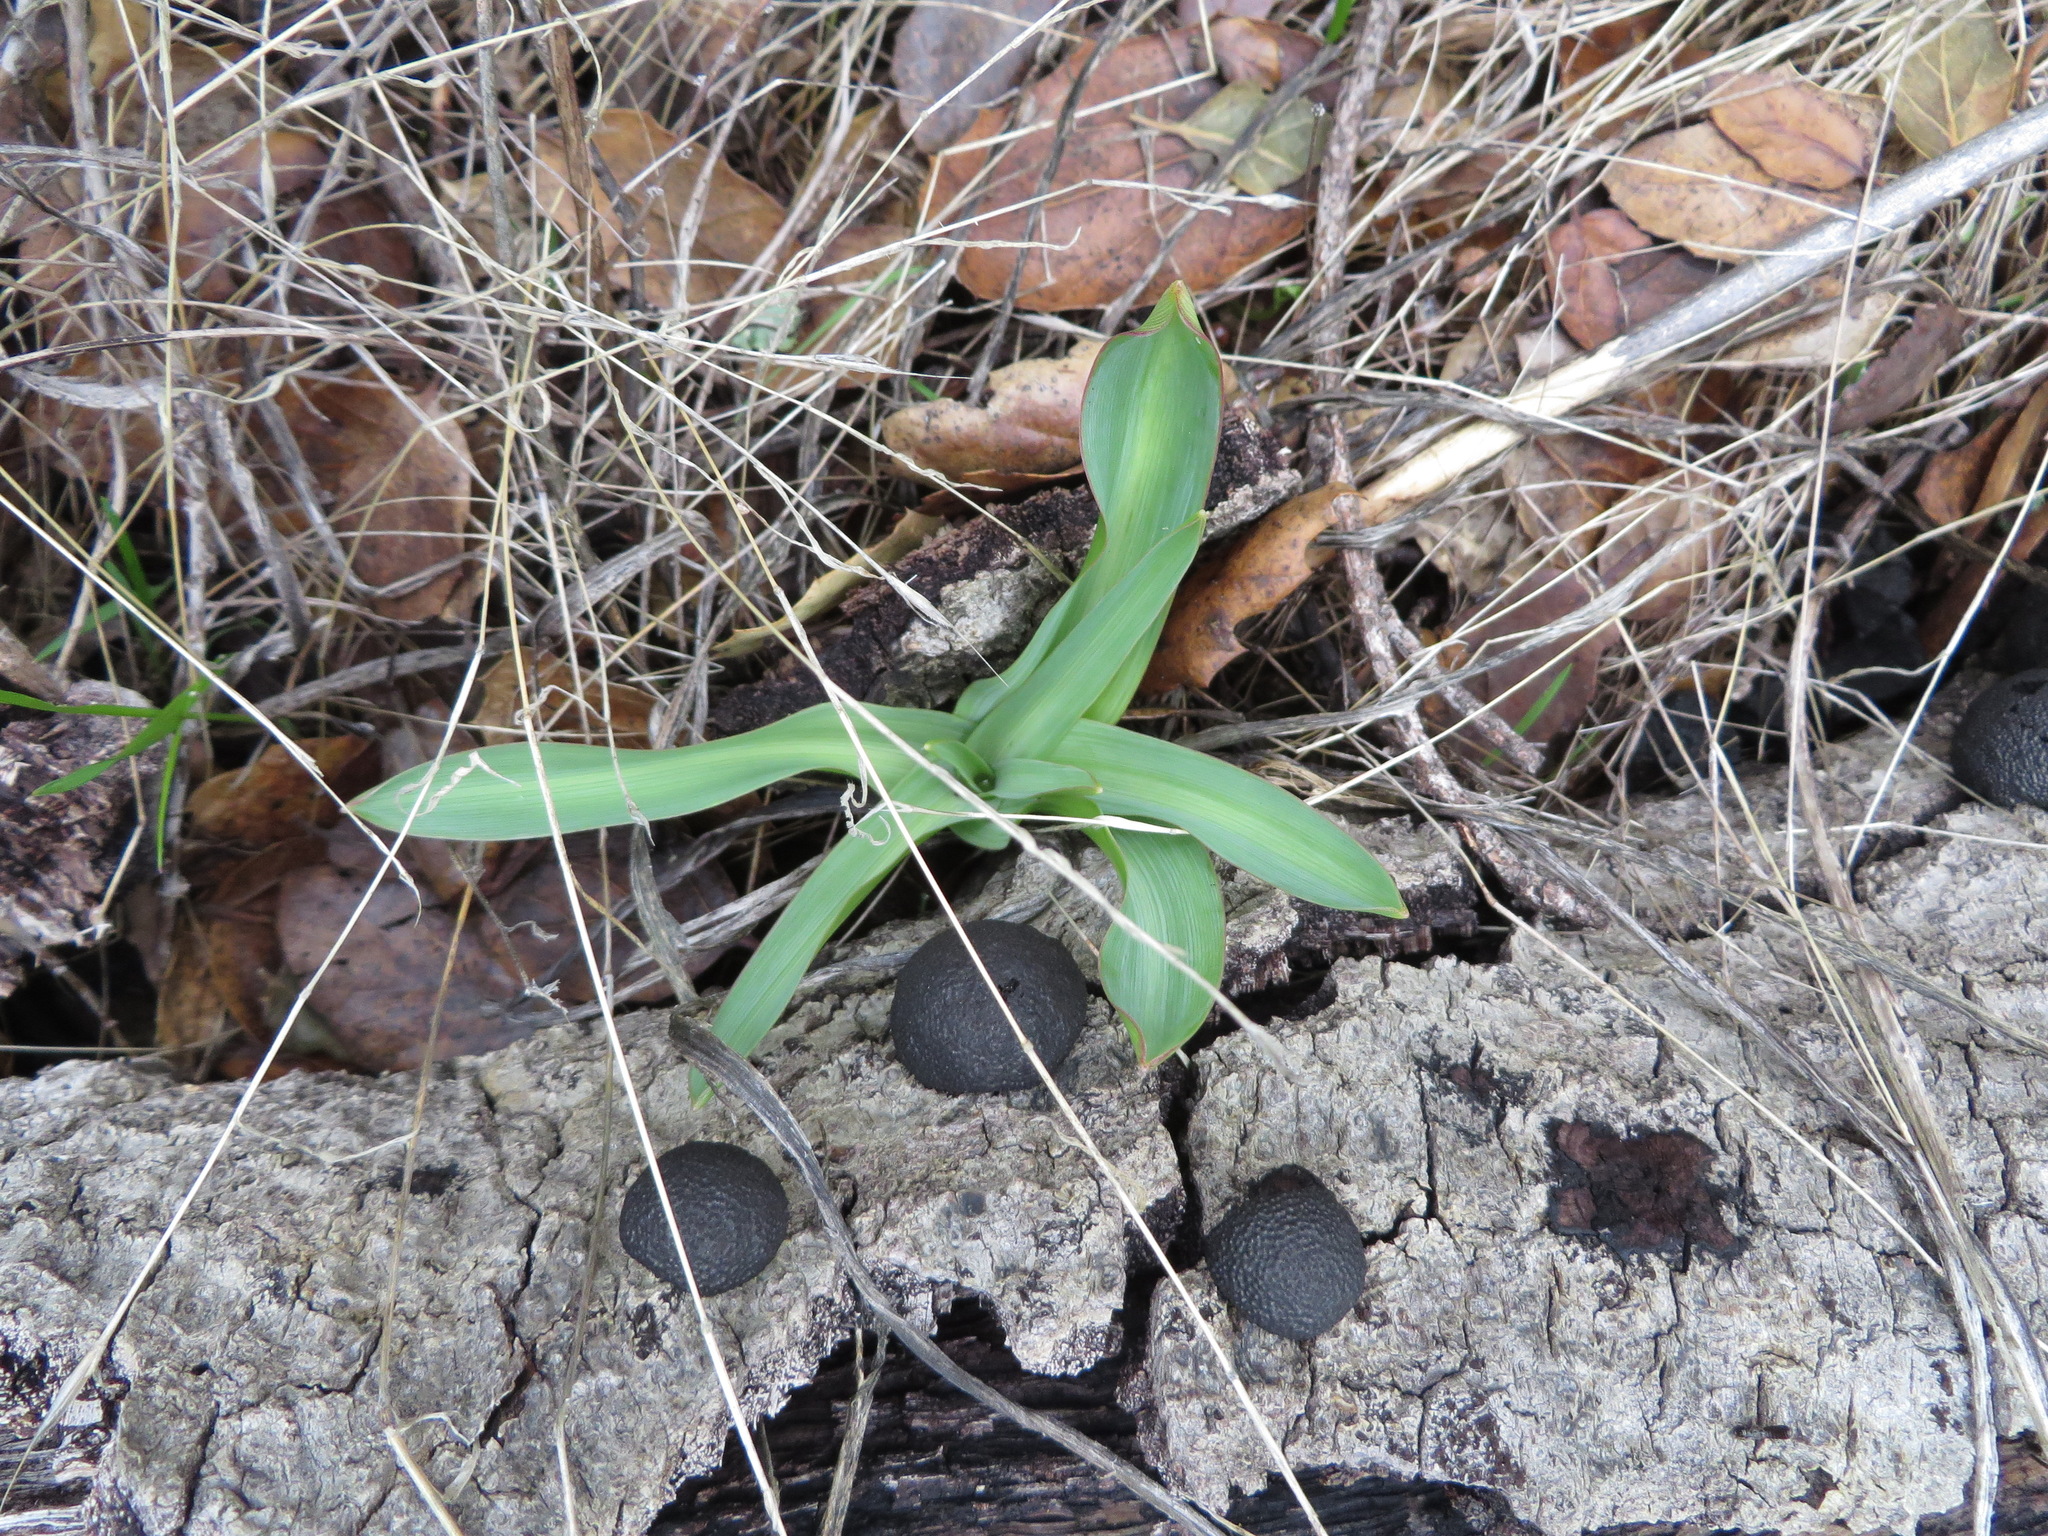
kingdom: Plantae
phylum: Tracheophyta
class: Liliopsida
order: Asparagales
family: Asparagaceae
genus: Chlorogalum
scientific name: Chlorogalum pomeridianum
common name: Amole
